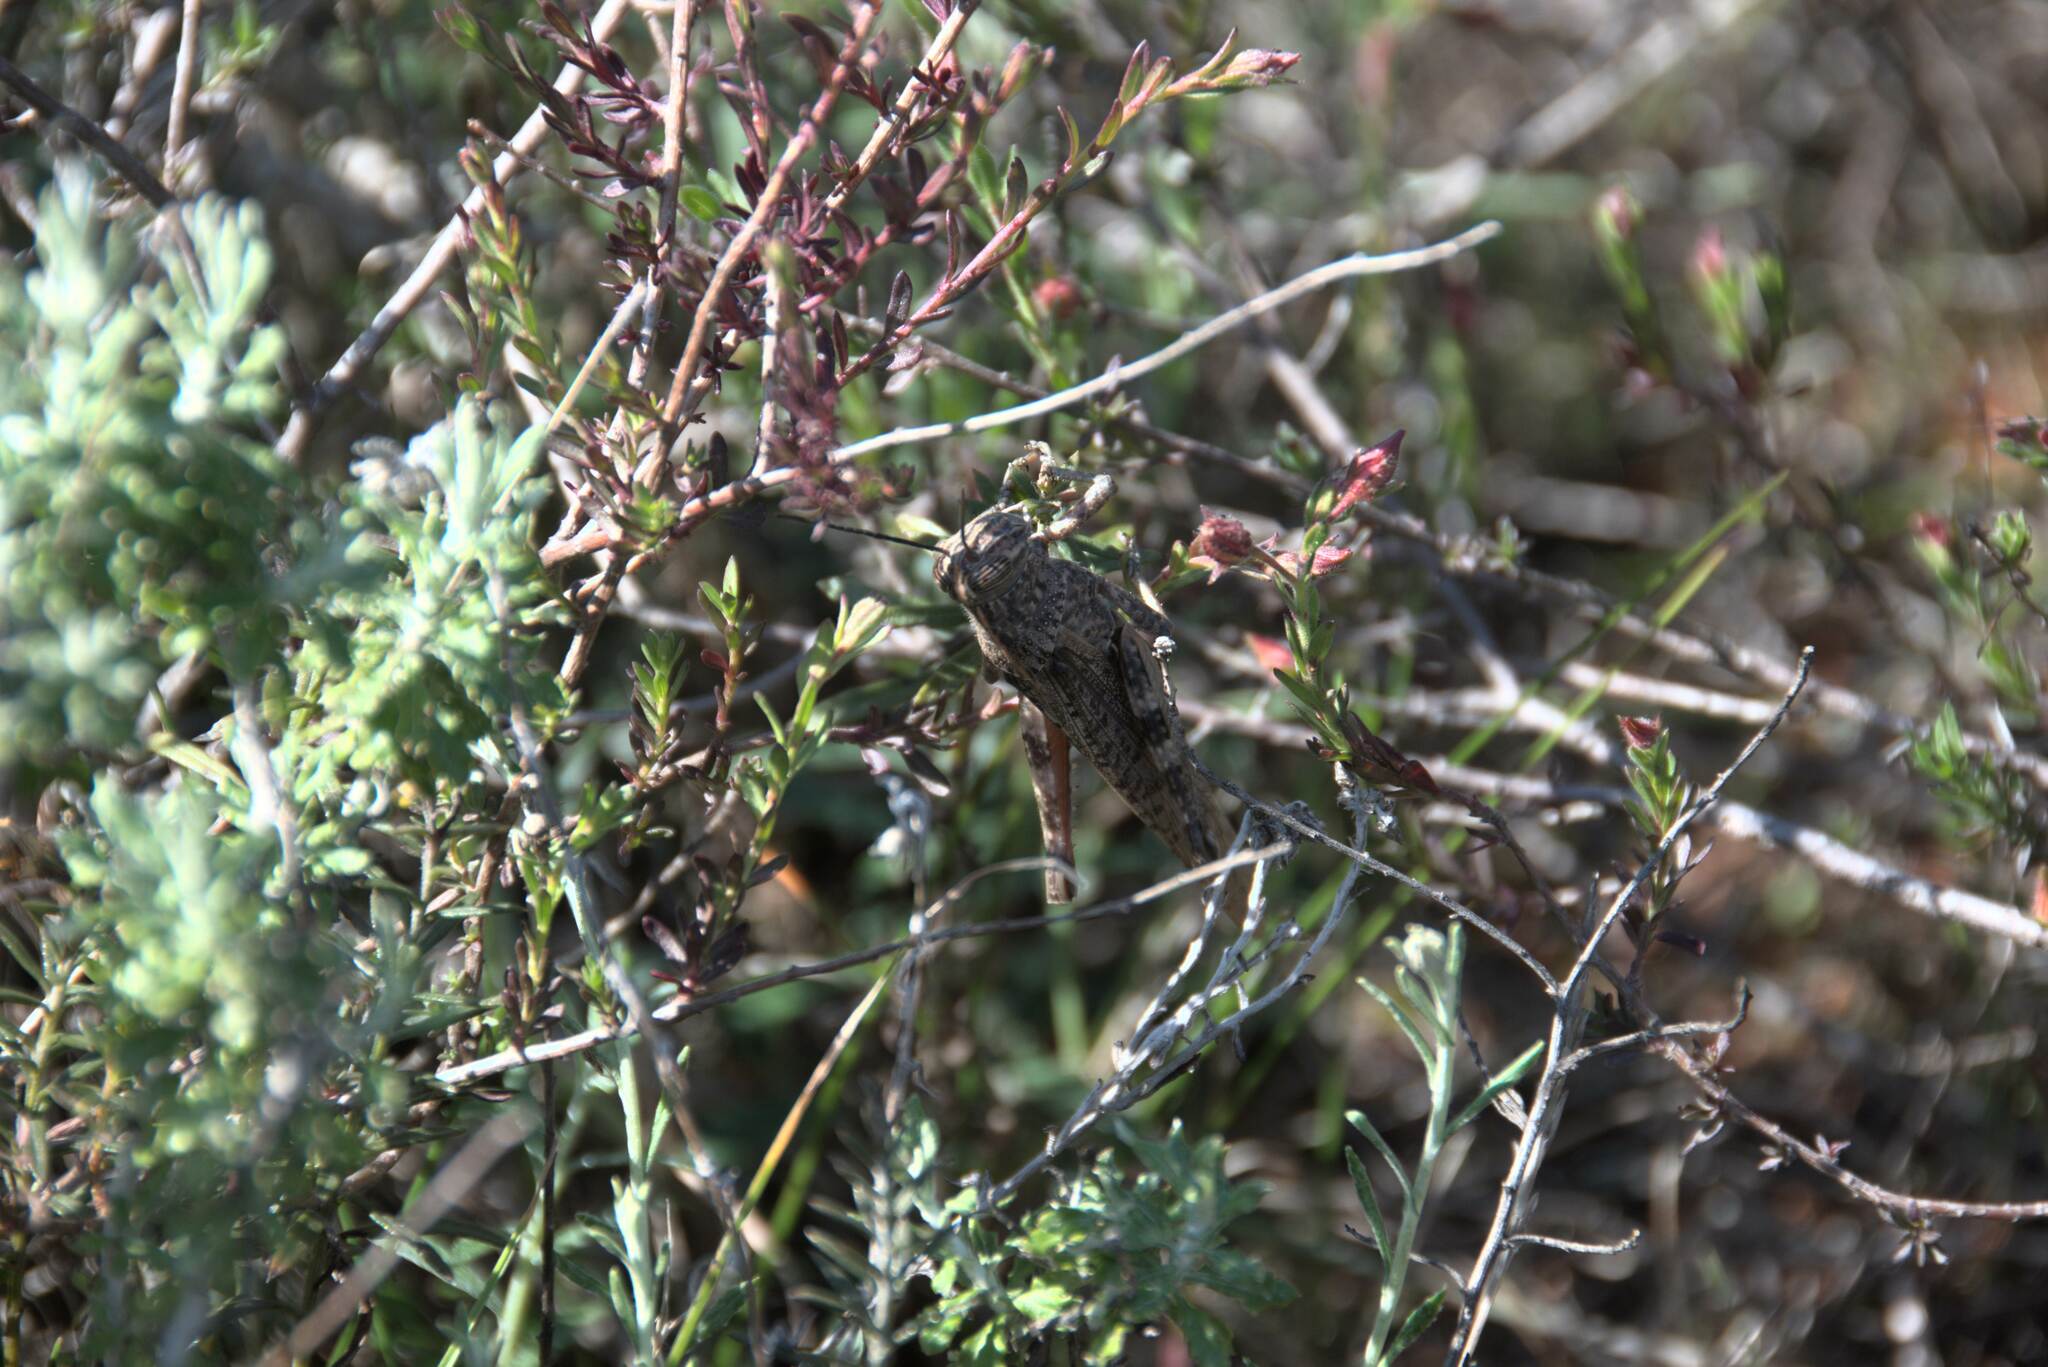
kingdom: Animalia
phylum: Arthropoda
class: Insecta
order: Orthoptera
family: Acrididae
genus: Anacridium
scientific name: Anacridium aegyptium
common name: Egyptian grasshopper
